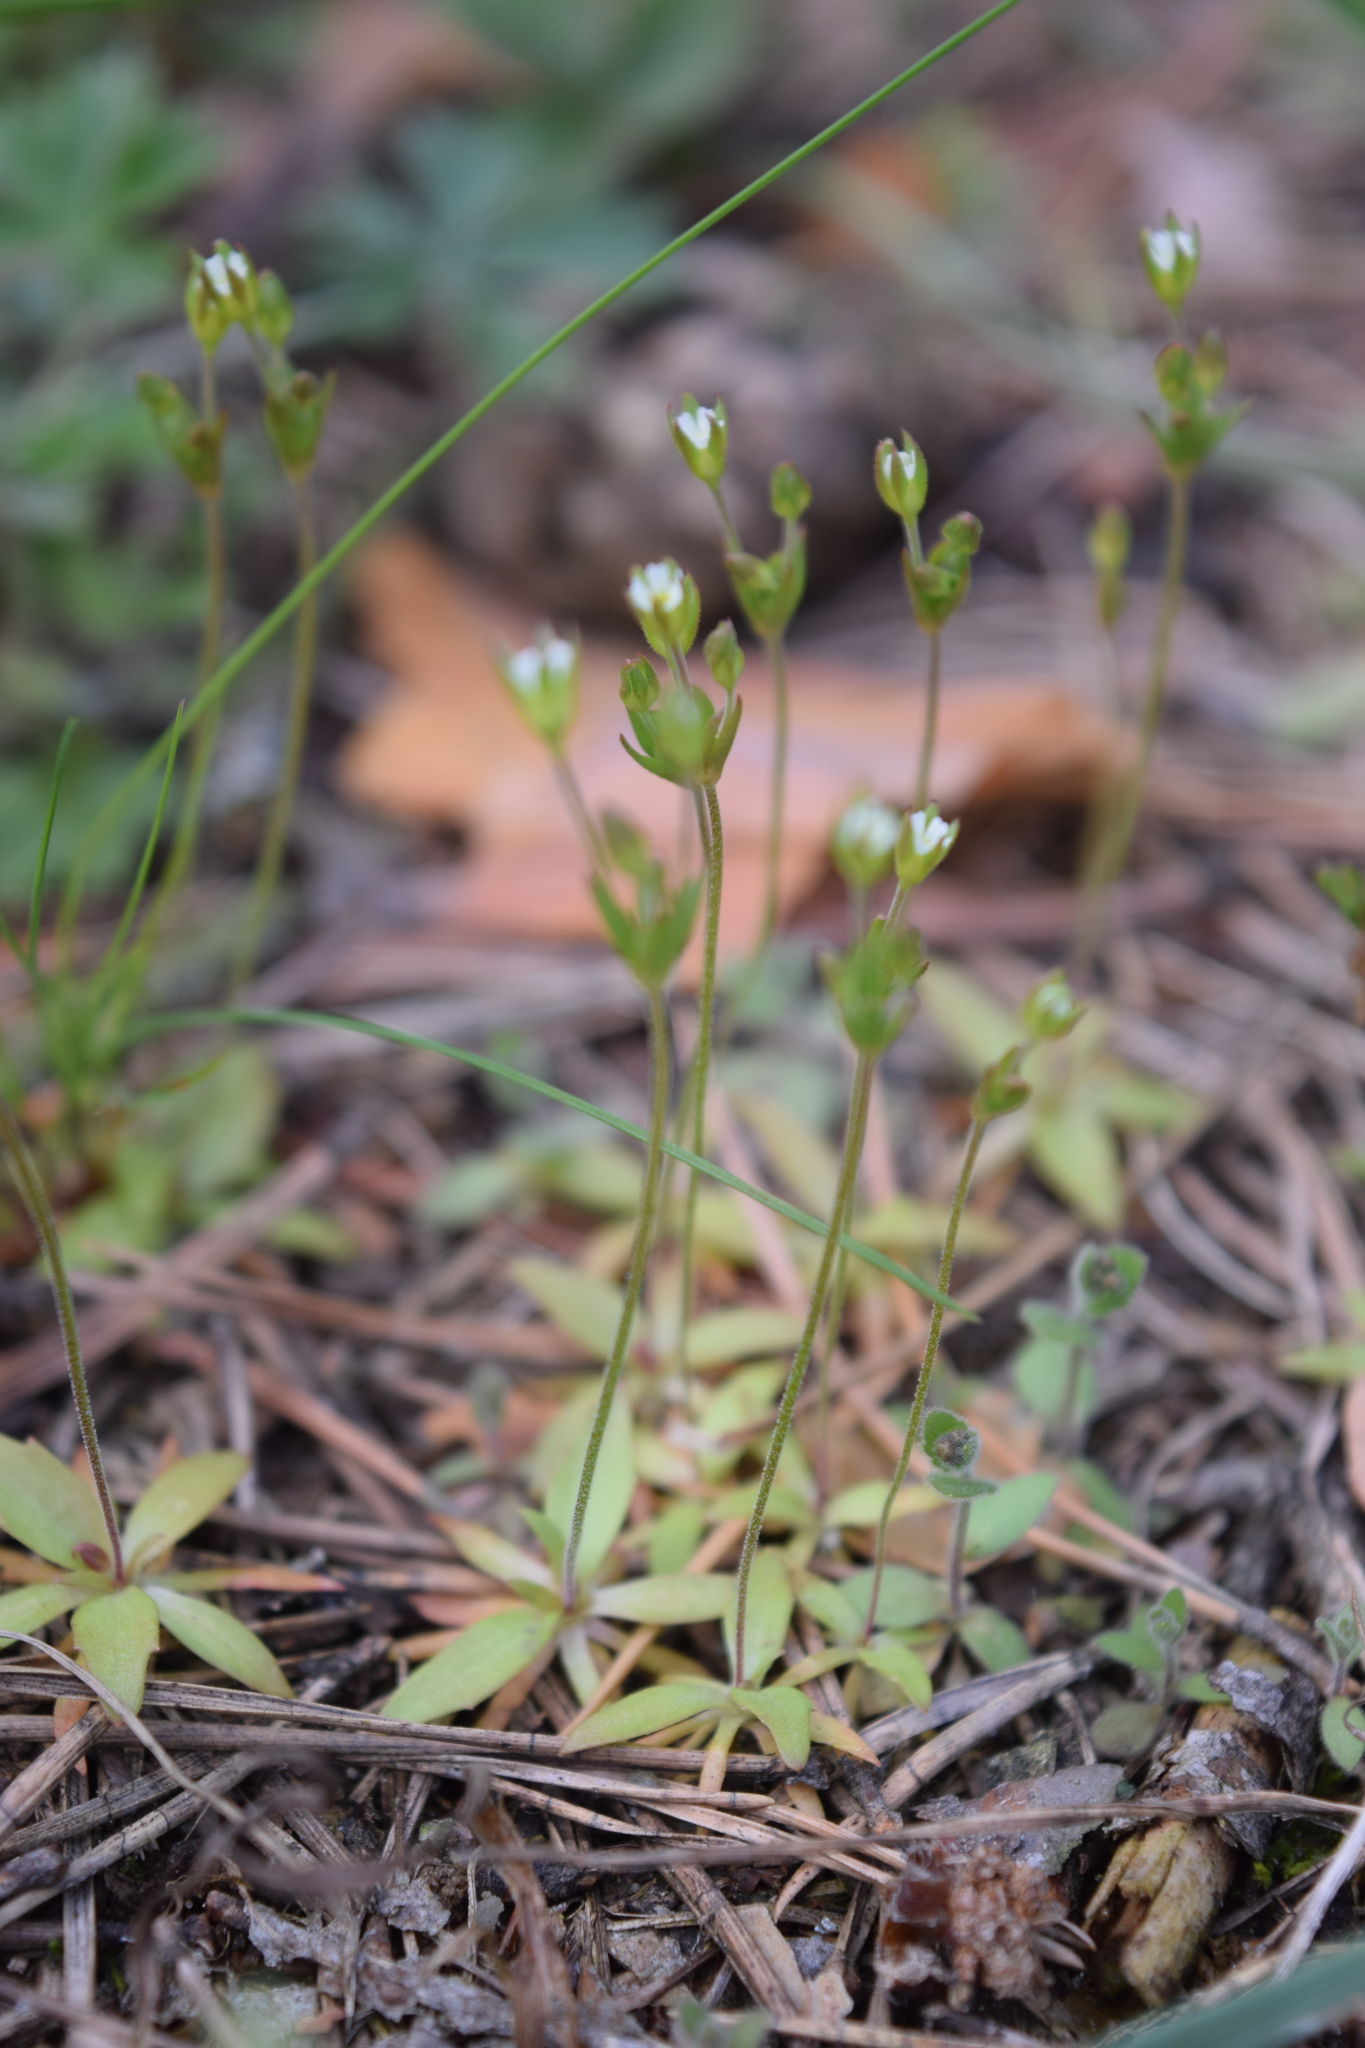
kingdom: Plantae
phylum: Tracheophyta
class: Magnoliopsida
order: Ericales
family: Primulaceae
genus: Androsace
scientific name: Androsace elongata
